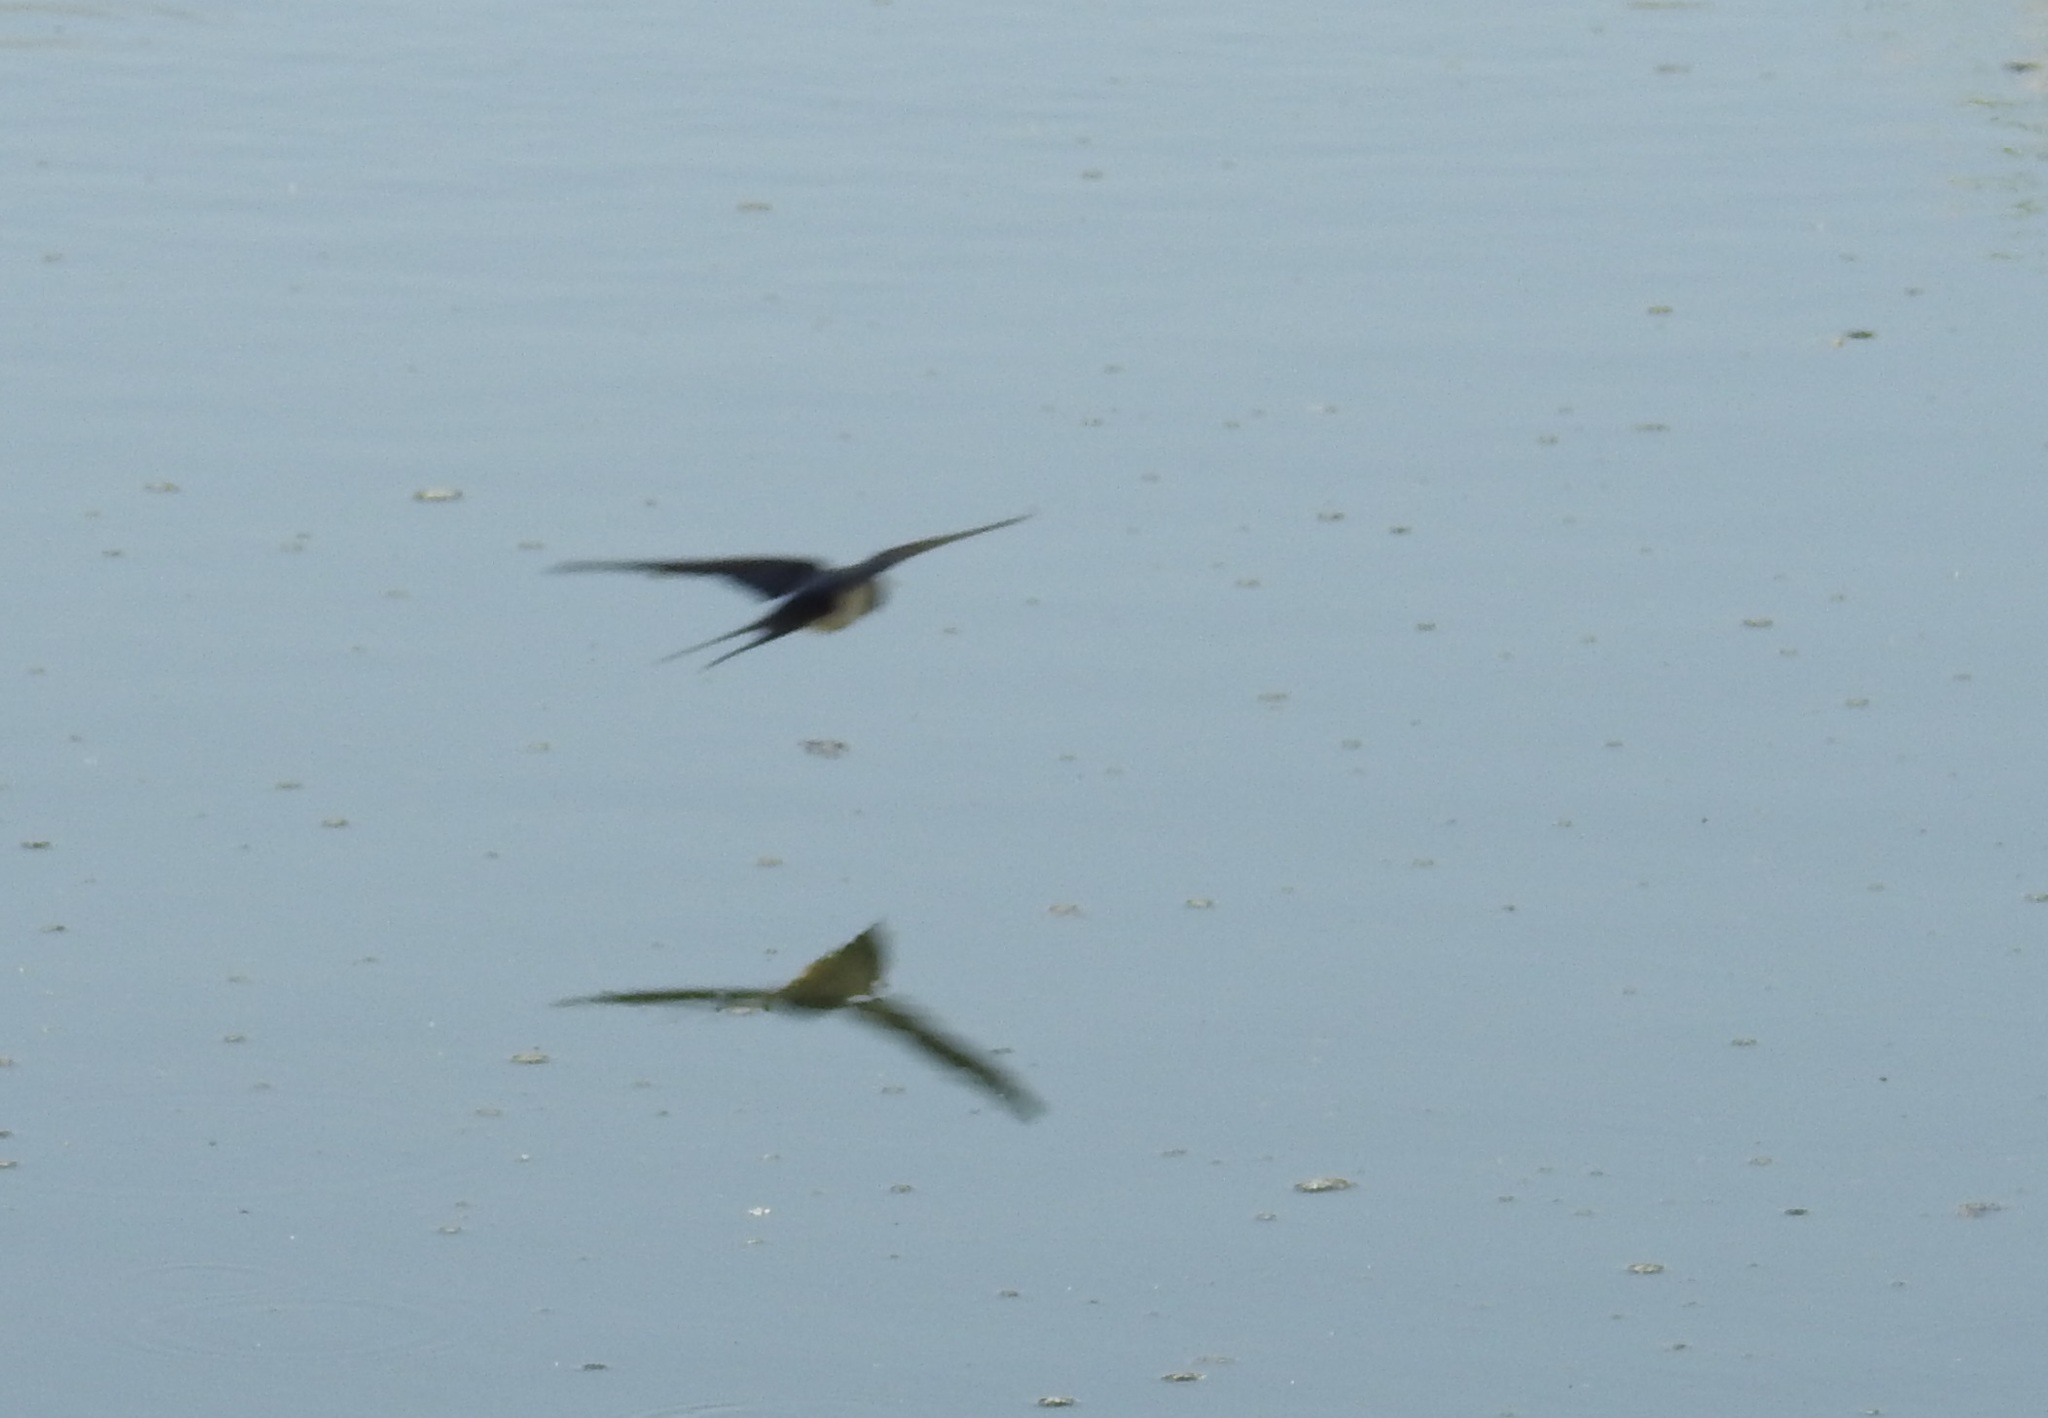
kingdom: Animalia
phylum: Chordata
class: Aves
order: Passeriformes
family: Hirundinidae
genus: Hirundo
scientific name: Hirundo rustica
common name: Barn swallow
